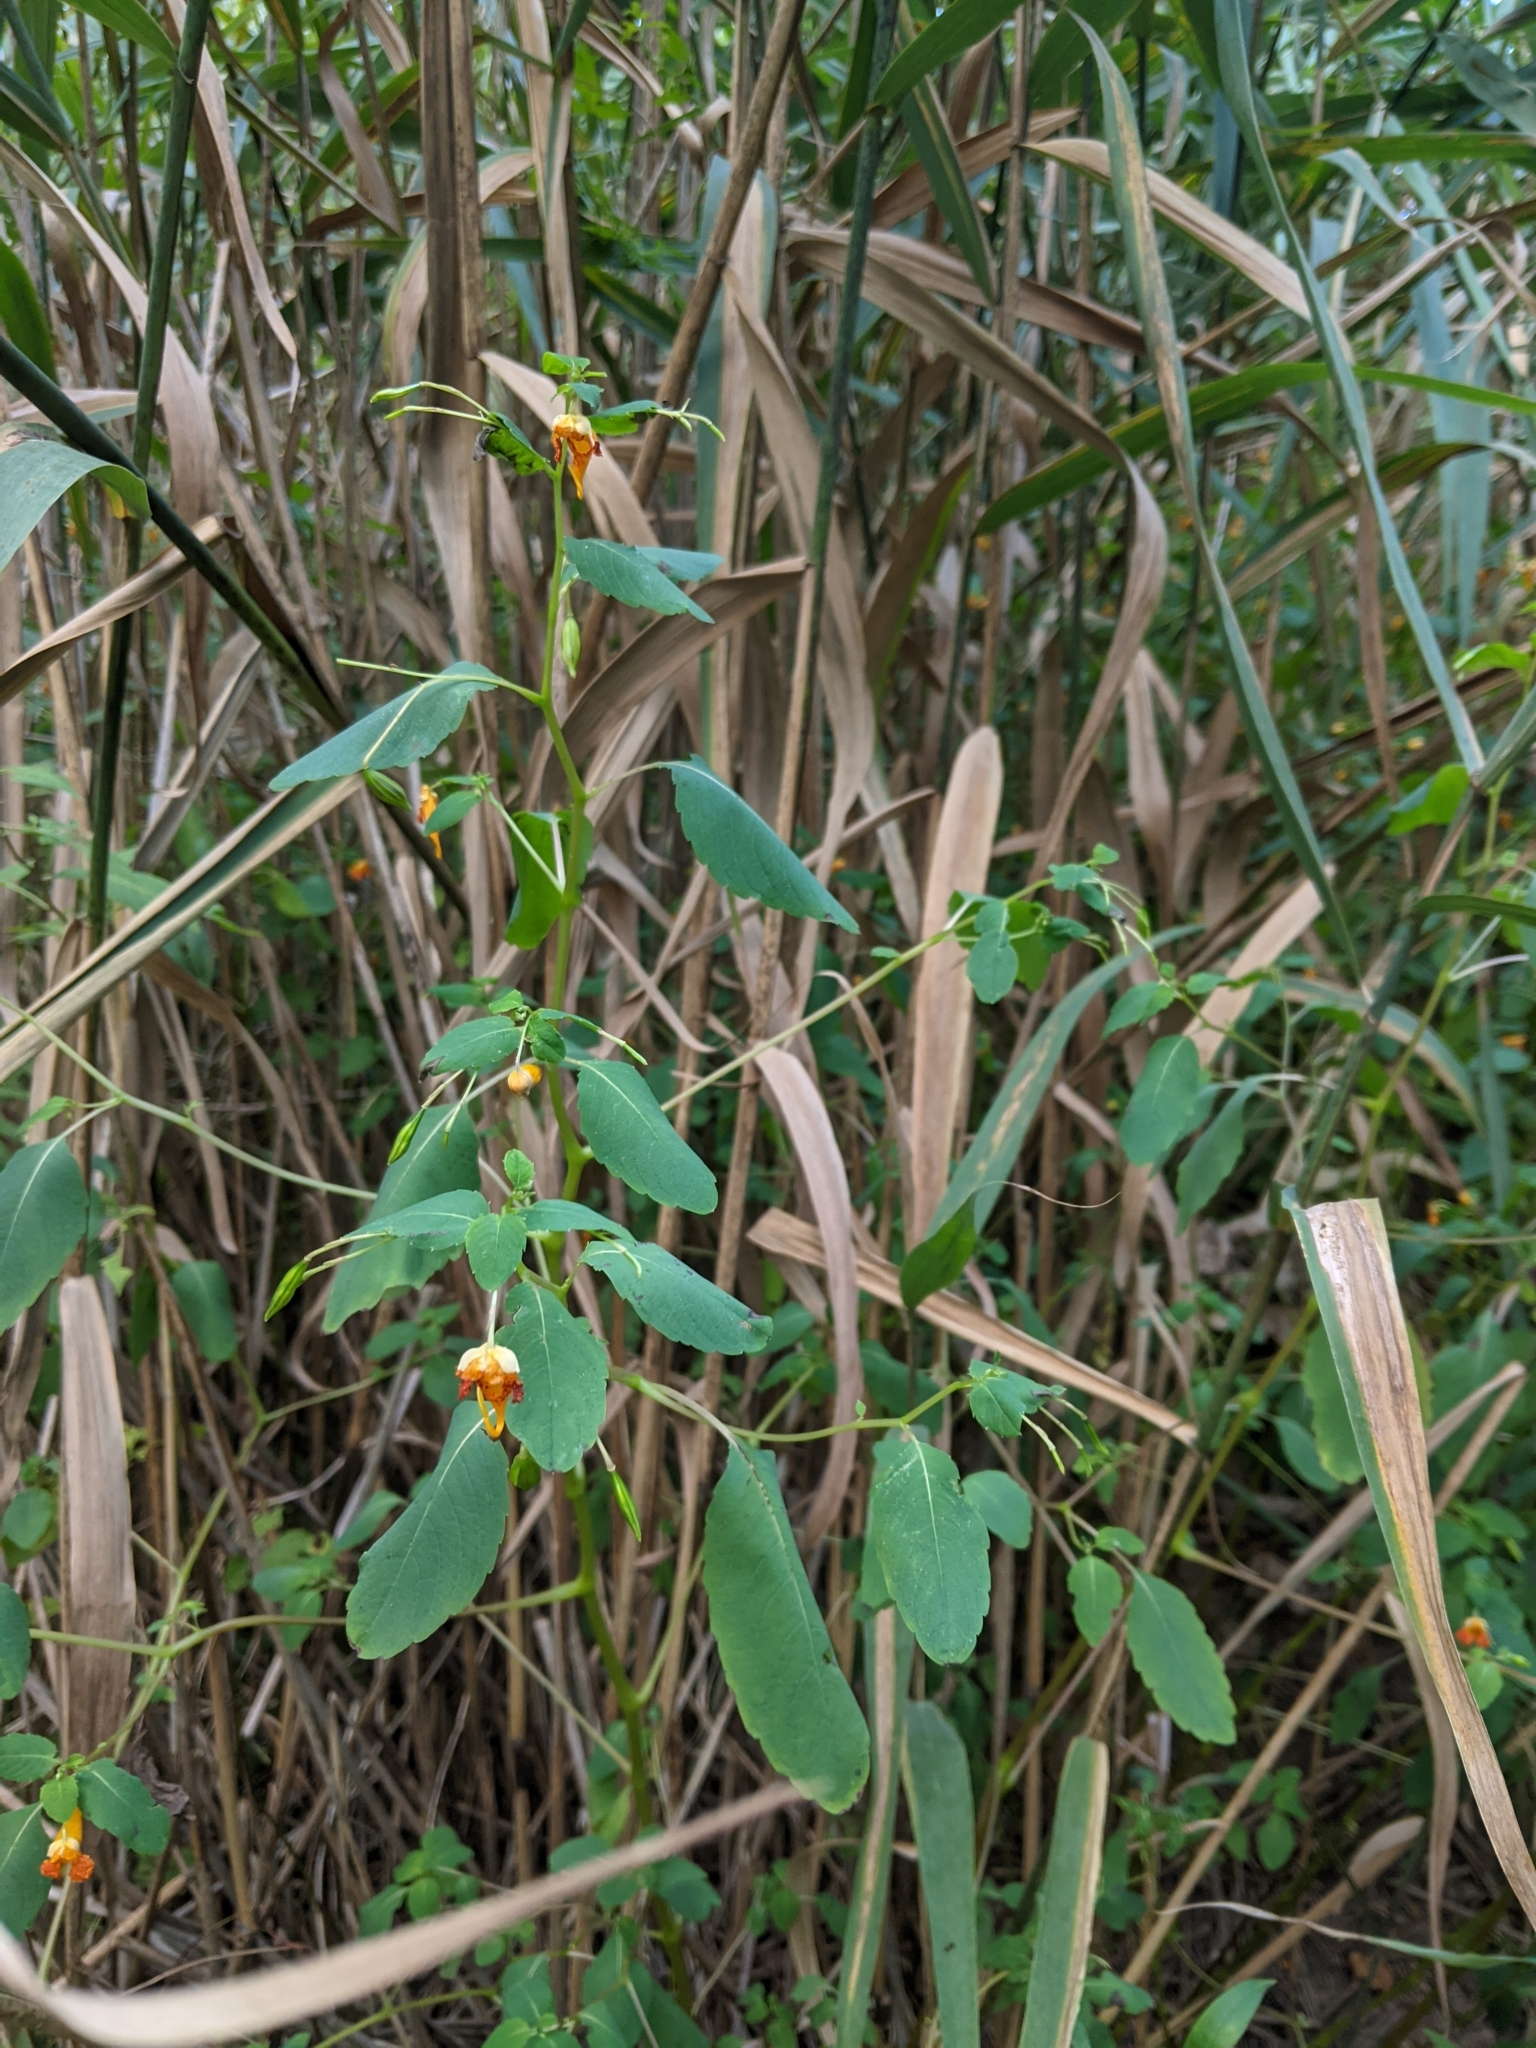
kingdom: Plantae
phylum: Tracheophyta
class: Magnoliopsida
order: Ericales
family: Balsaminaceae
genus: Impatiens
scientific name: Impatiens capensis
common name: Orange balsam
